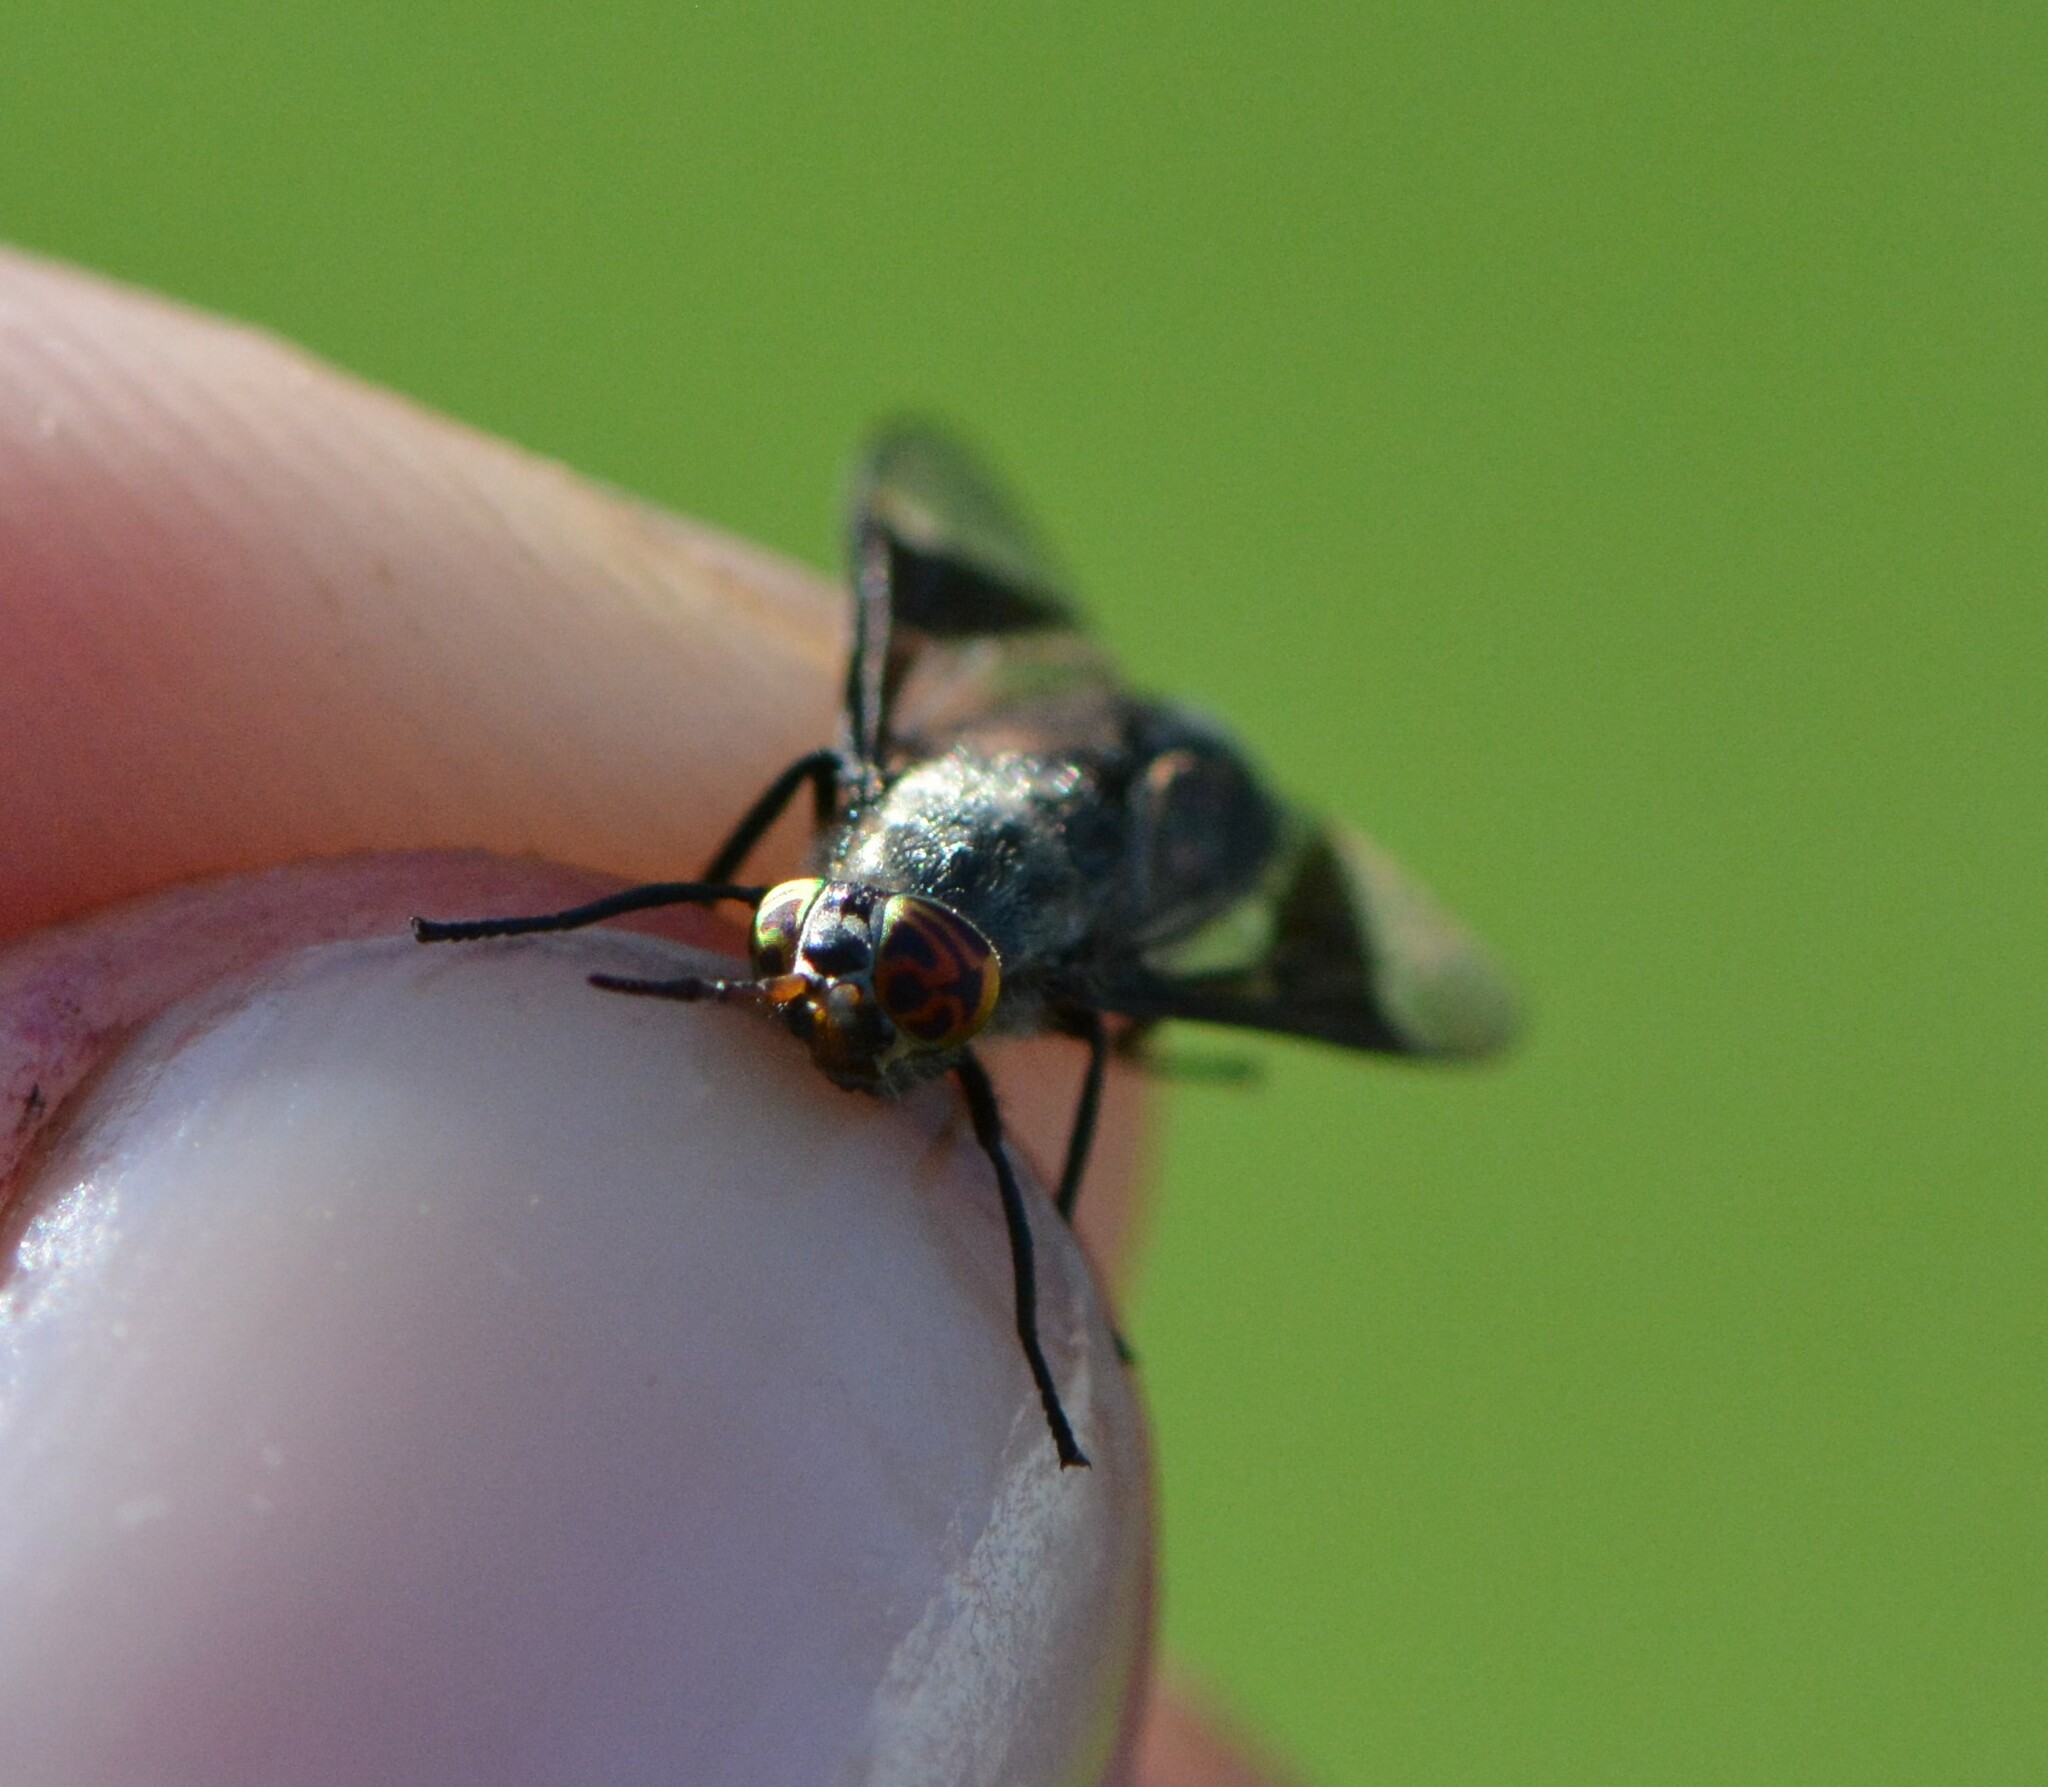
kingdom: Animalia
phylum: Arthropoda
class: Insecta
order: Diptera
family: Tabanidae
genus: Chrysops
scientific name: Chrysops niger
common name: Black deer fly
